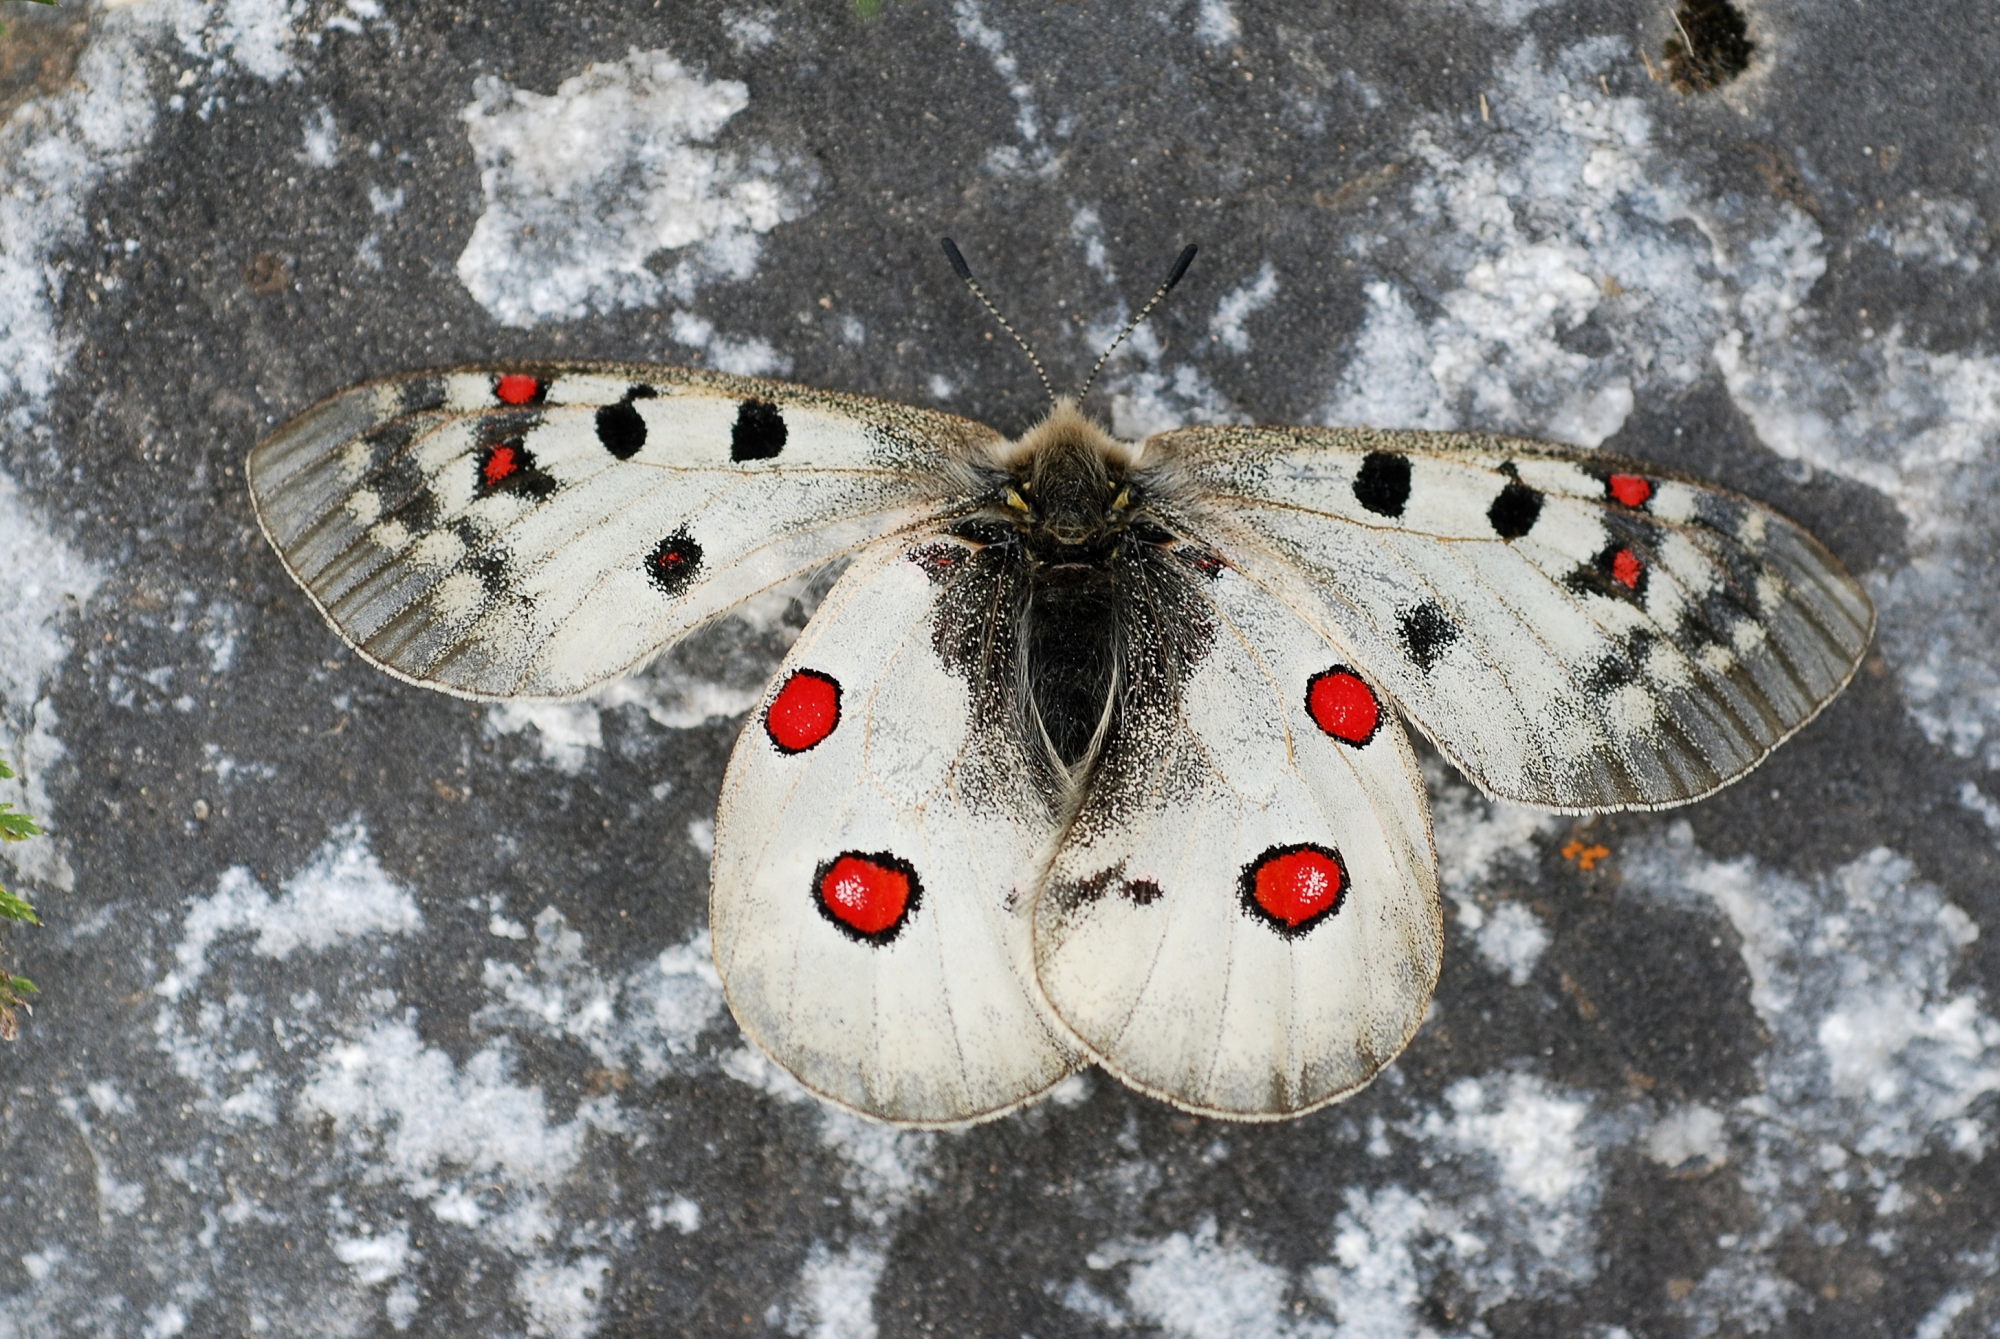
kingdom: Animalia
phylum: Arthropoda
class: Insecta
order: Lepidoptera
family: Papilionidae
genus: Parnassius
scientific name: Parnassius phoebus
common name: Small apollo
